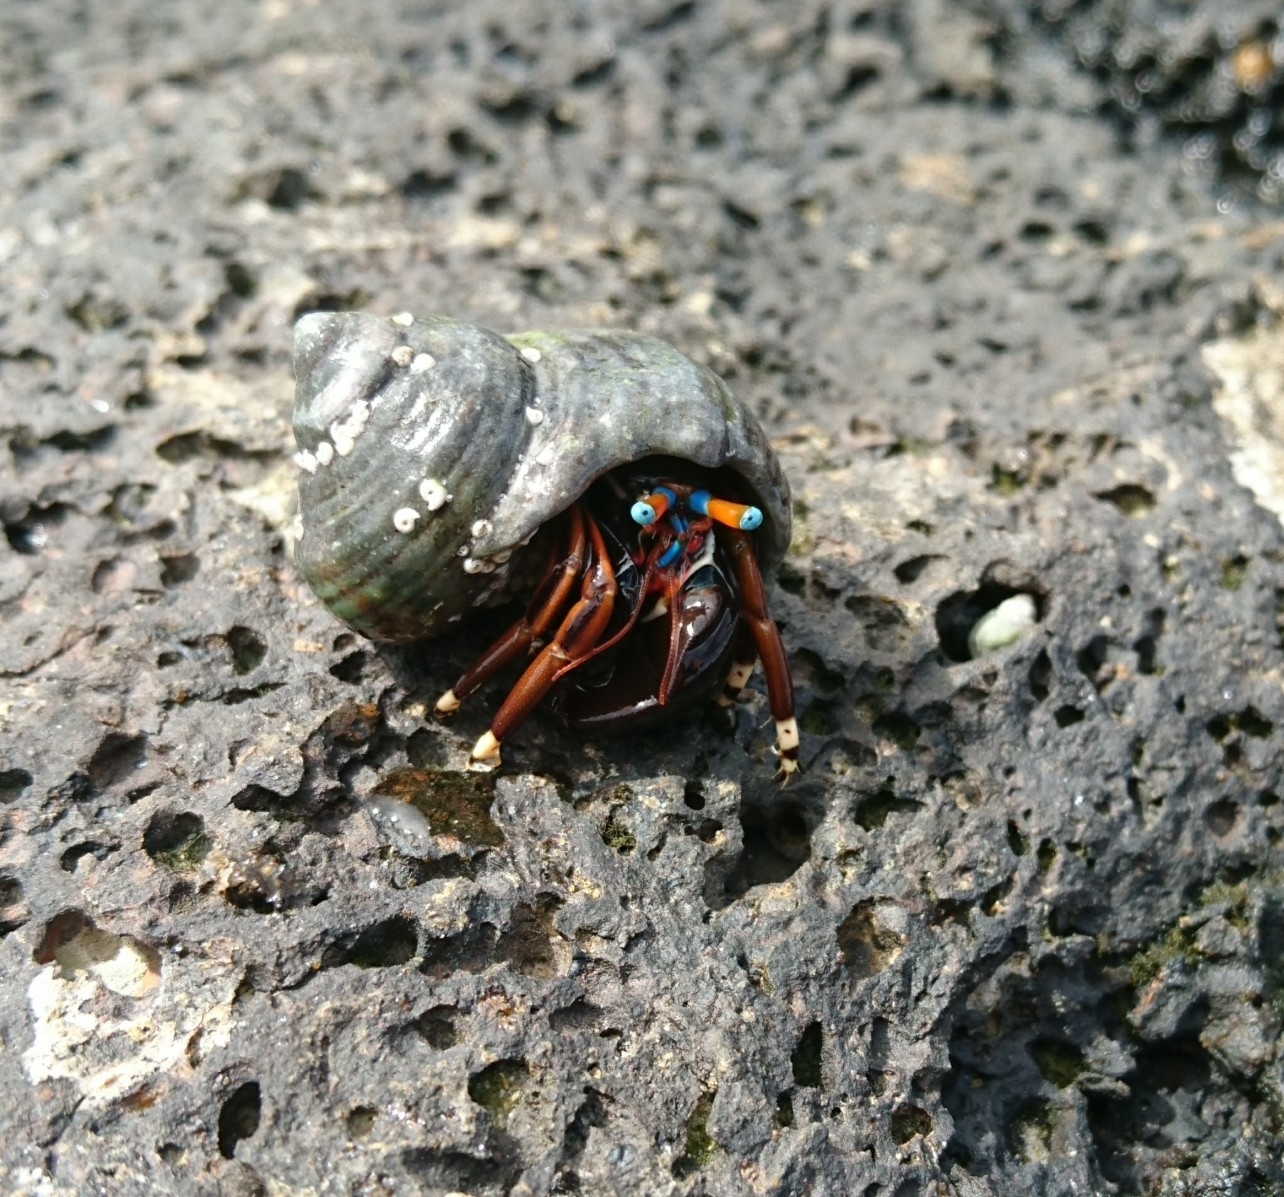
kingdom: Animalia
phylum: Arthropoda
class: Malacostraca
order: Decapoda
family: Diogenidae
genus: Calcinus
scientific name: Calcinus laevimanus
